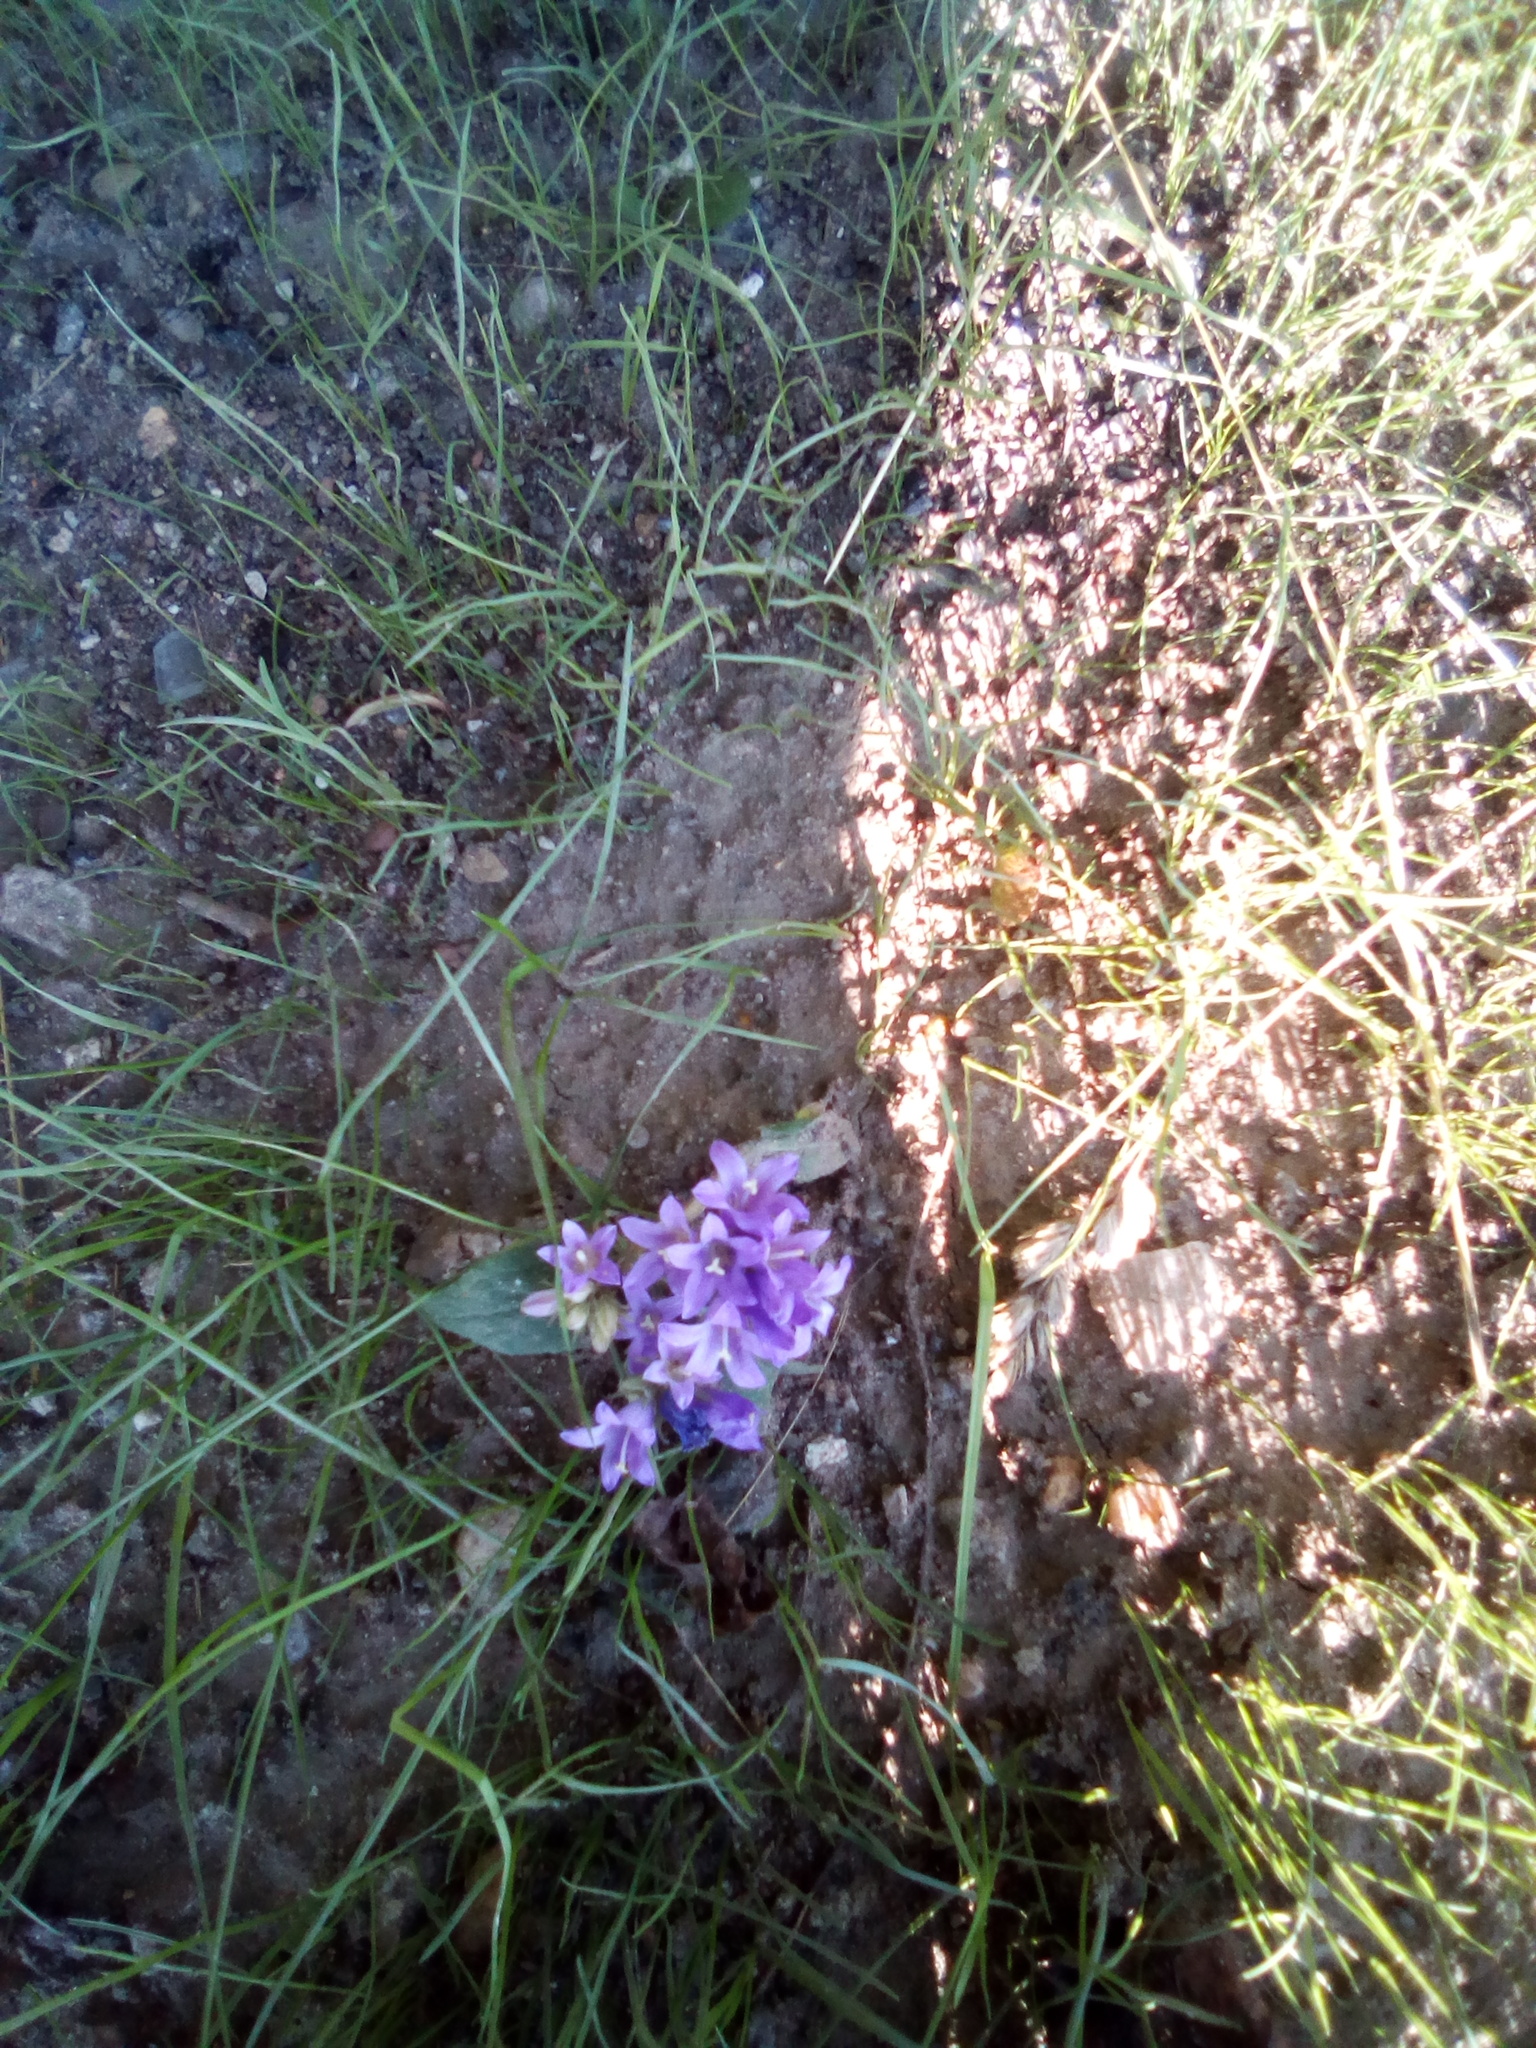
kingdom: Plantae
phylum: Tracheophyta
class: Magnoliopsida
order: Asterales
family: Campanulaceae
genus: Campanula
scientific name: Campanula glomerata
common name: Clustered bellflower
